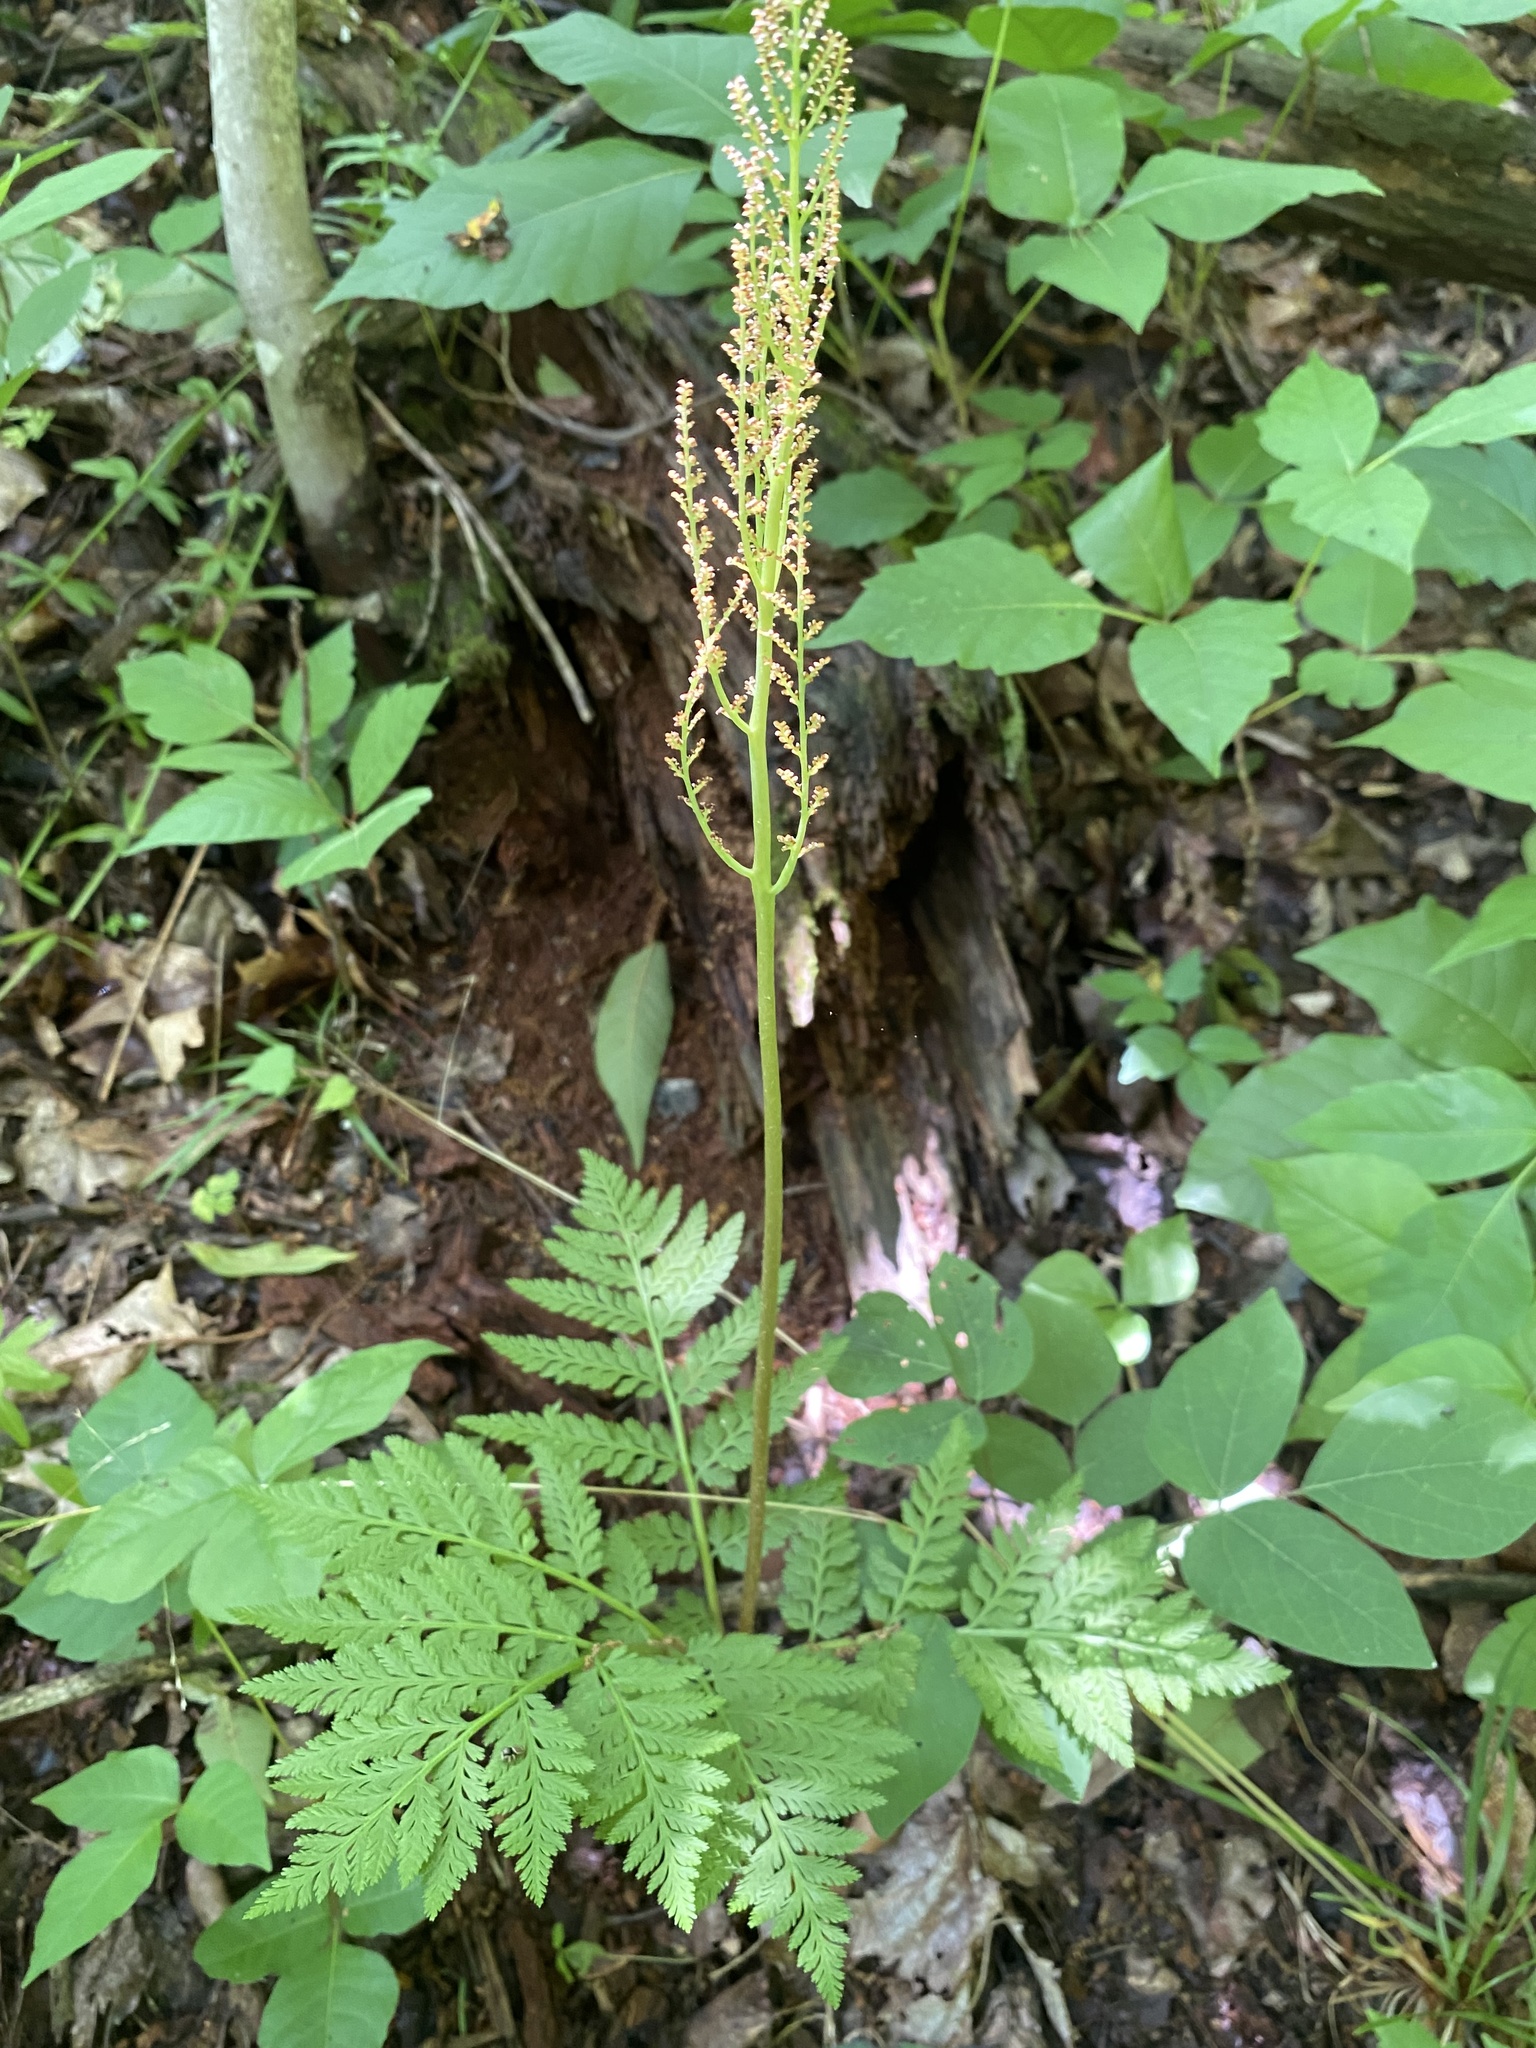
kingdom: Plantae
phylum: Tracheophyta
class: Polypodiopsida
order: Ophioglossales
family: Ophioglossaceae
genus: Botrypus
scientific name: Botrypus virginianus
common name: Common grapefern
